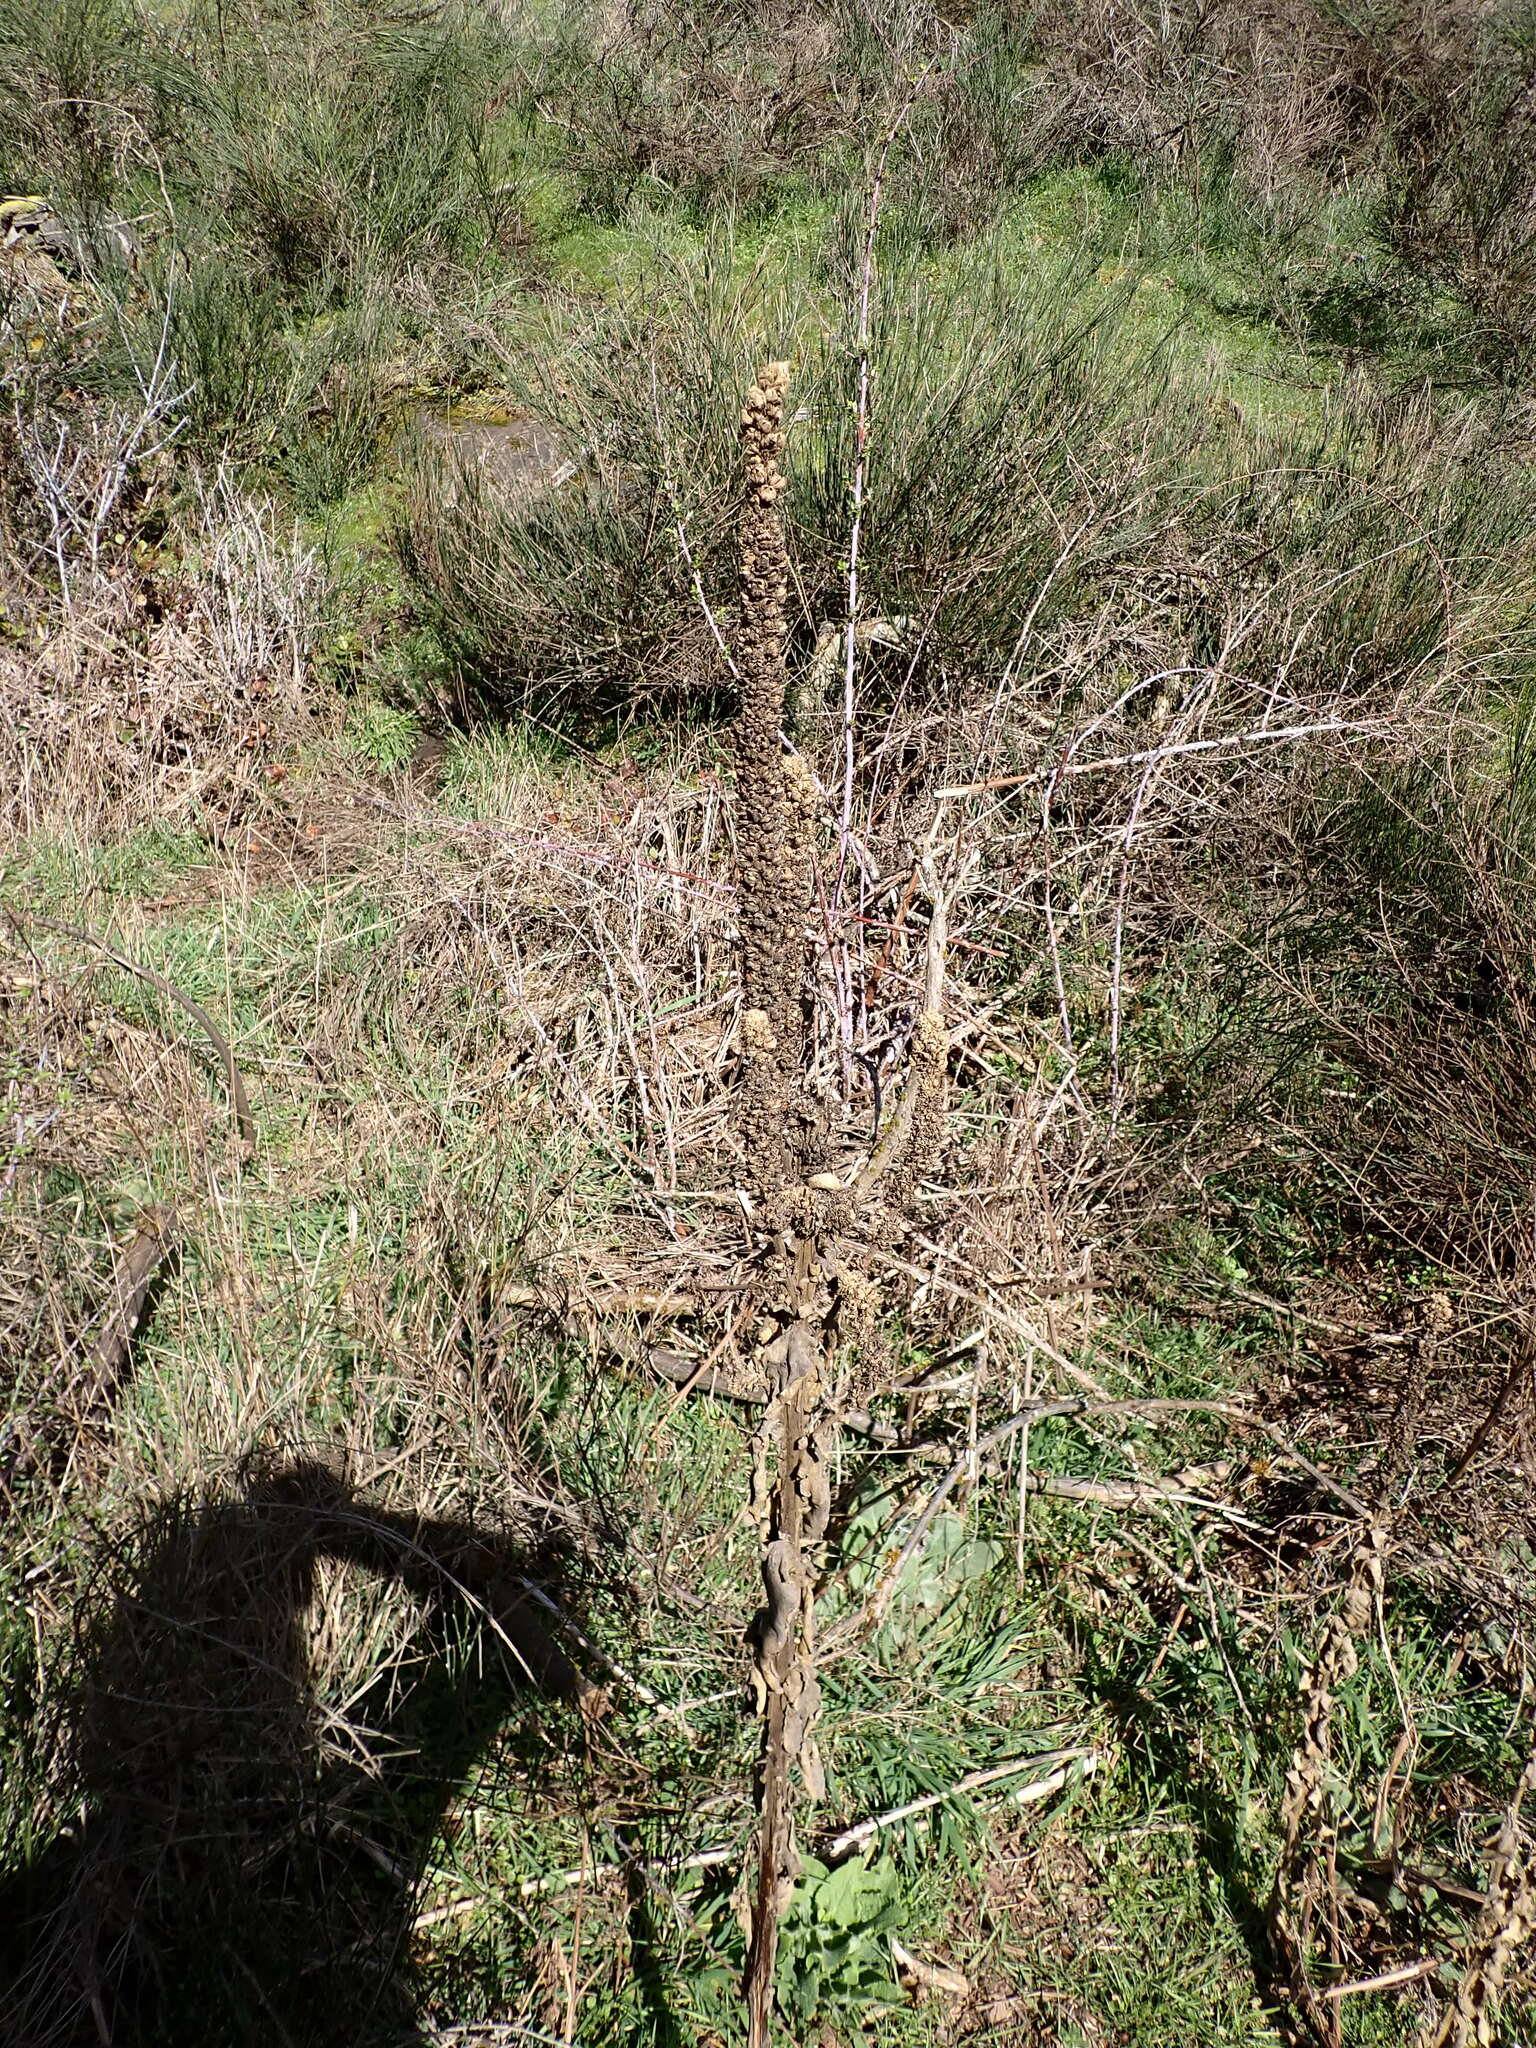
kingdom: Plantae
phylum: Tracheophyta
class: Magnoliopsida
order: Lamiales
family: Scrophulariaceae
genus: Verbascum
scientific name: Verbascum thapsus
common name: Common mullein
